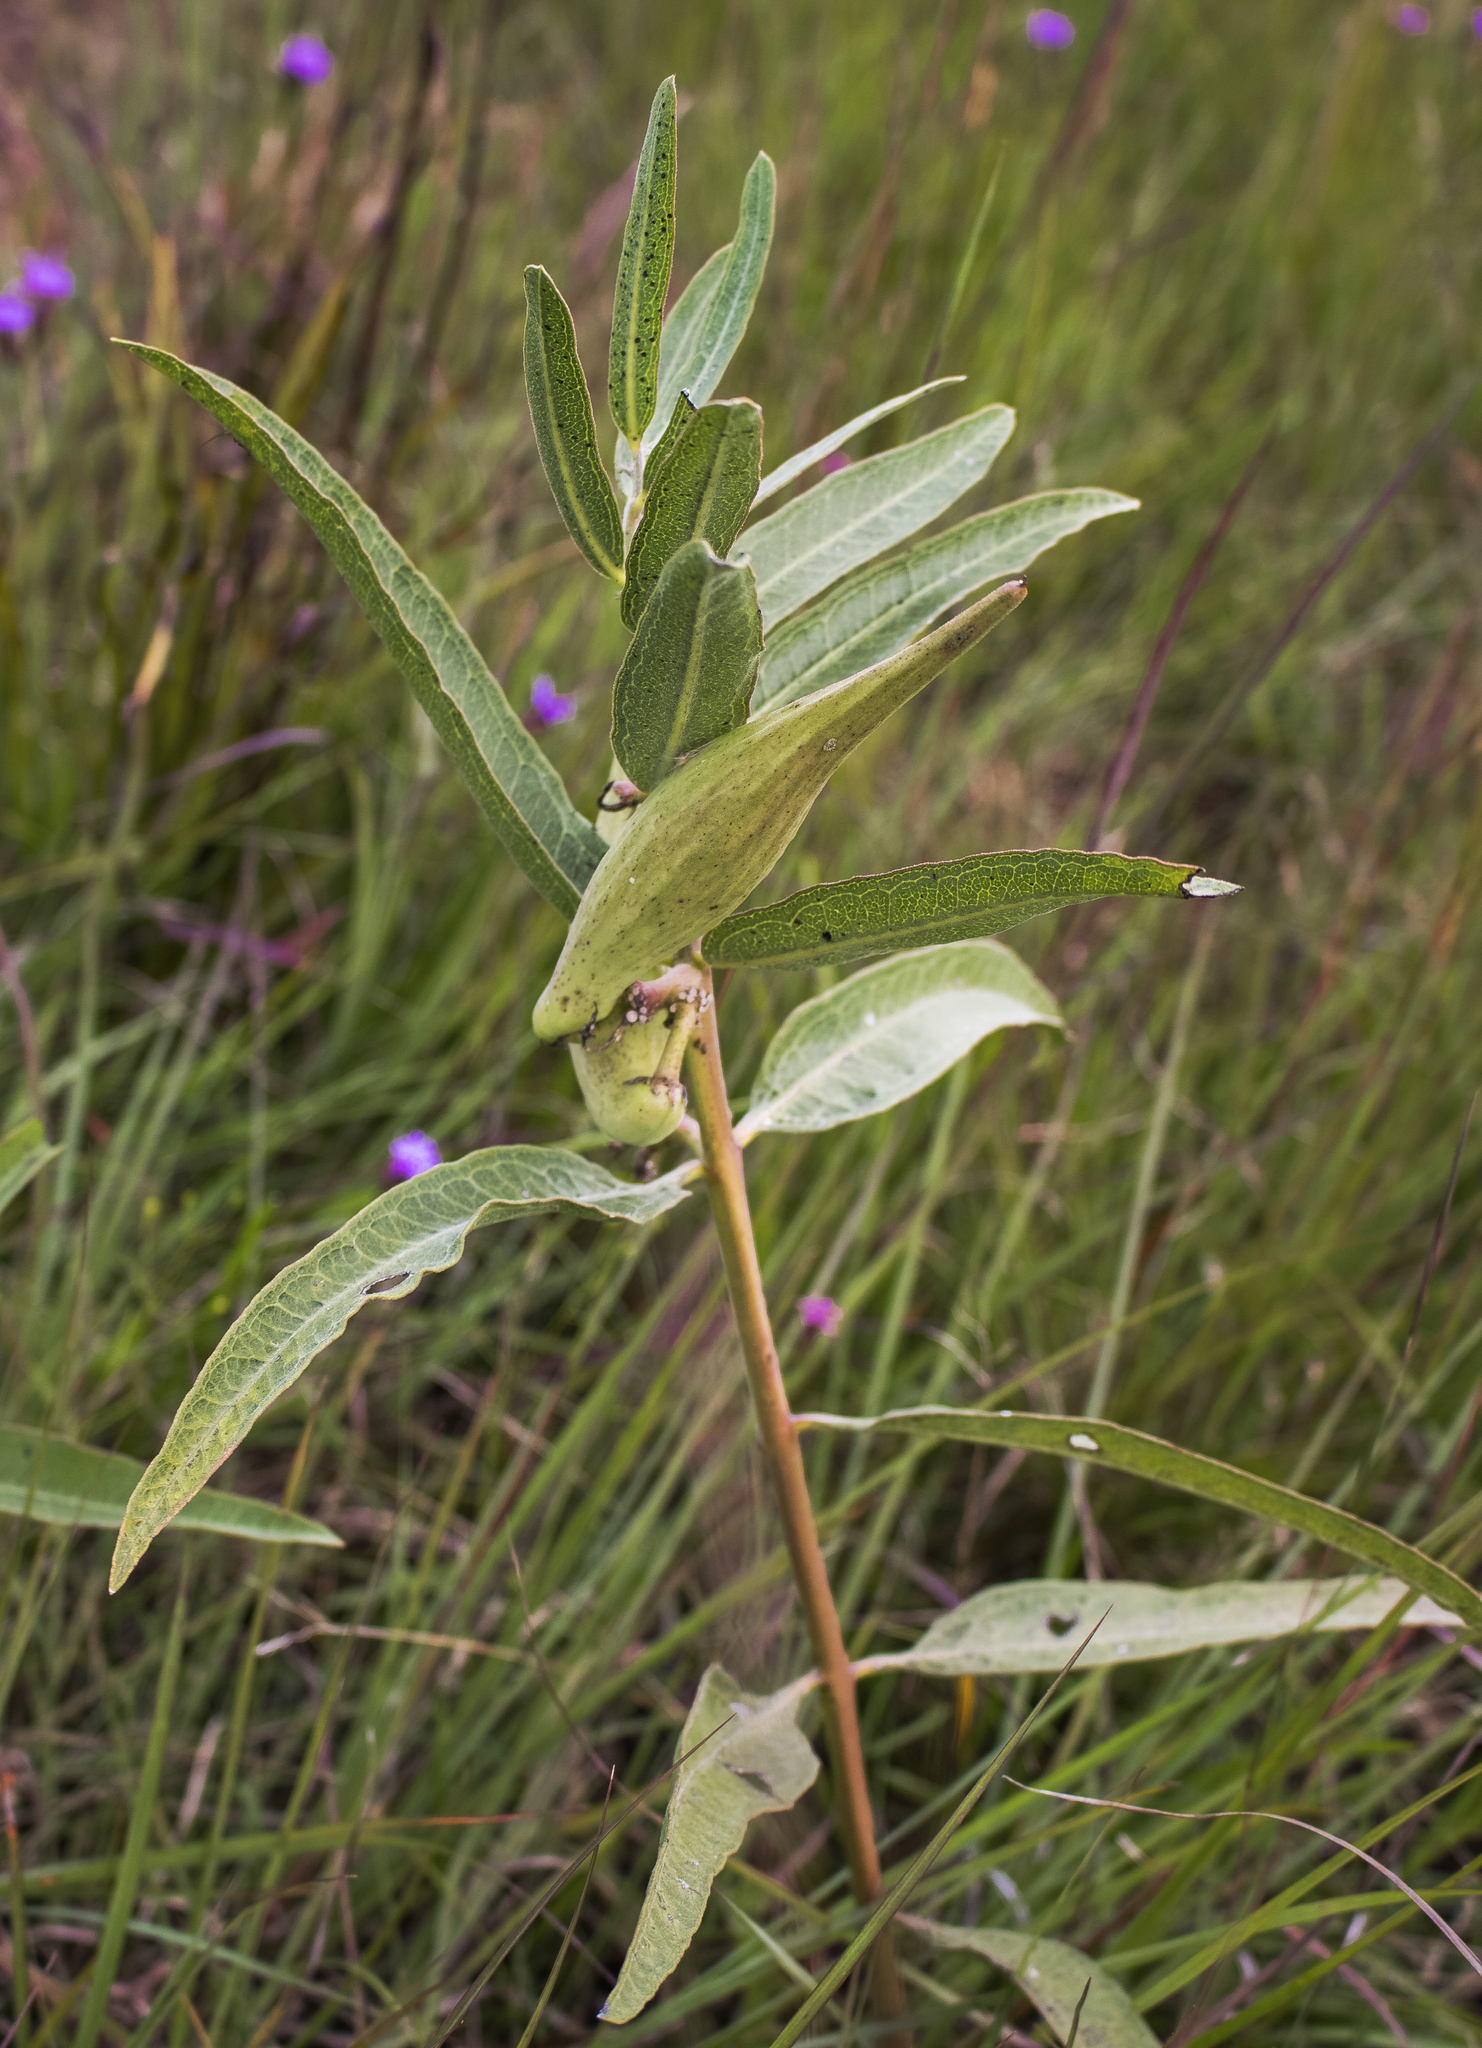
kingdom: Plantae
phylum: Tracheophyta
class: Magnoliopsida
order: Gentianales
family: Apocynaceae
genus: Asclepias
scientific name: Asclepias viridiflora
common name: Green comet milkweed
